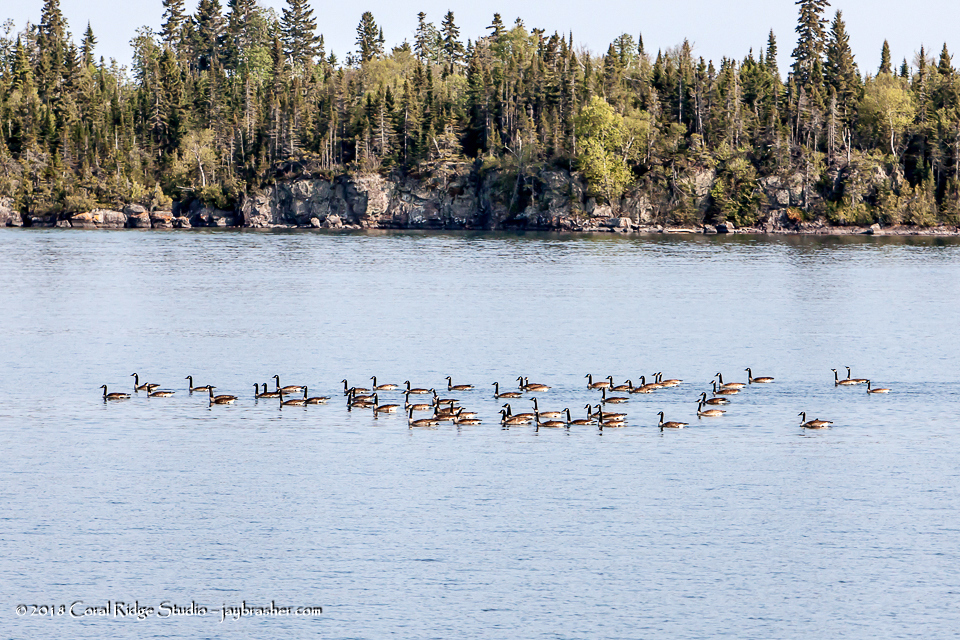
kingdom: Animalia
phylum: Chordata
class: Aves
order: Anseriformes
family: Anatidae
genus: Branta
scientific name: Branta canadensis
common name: Canada goose
